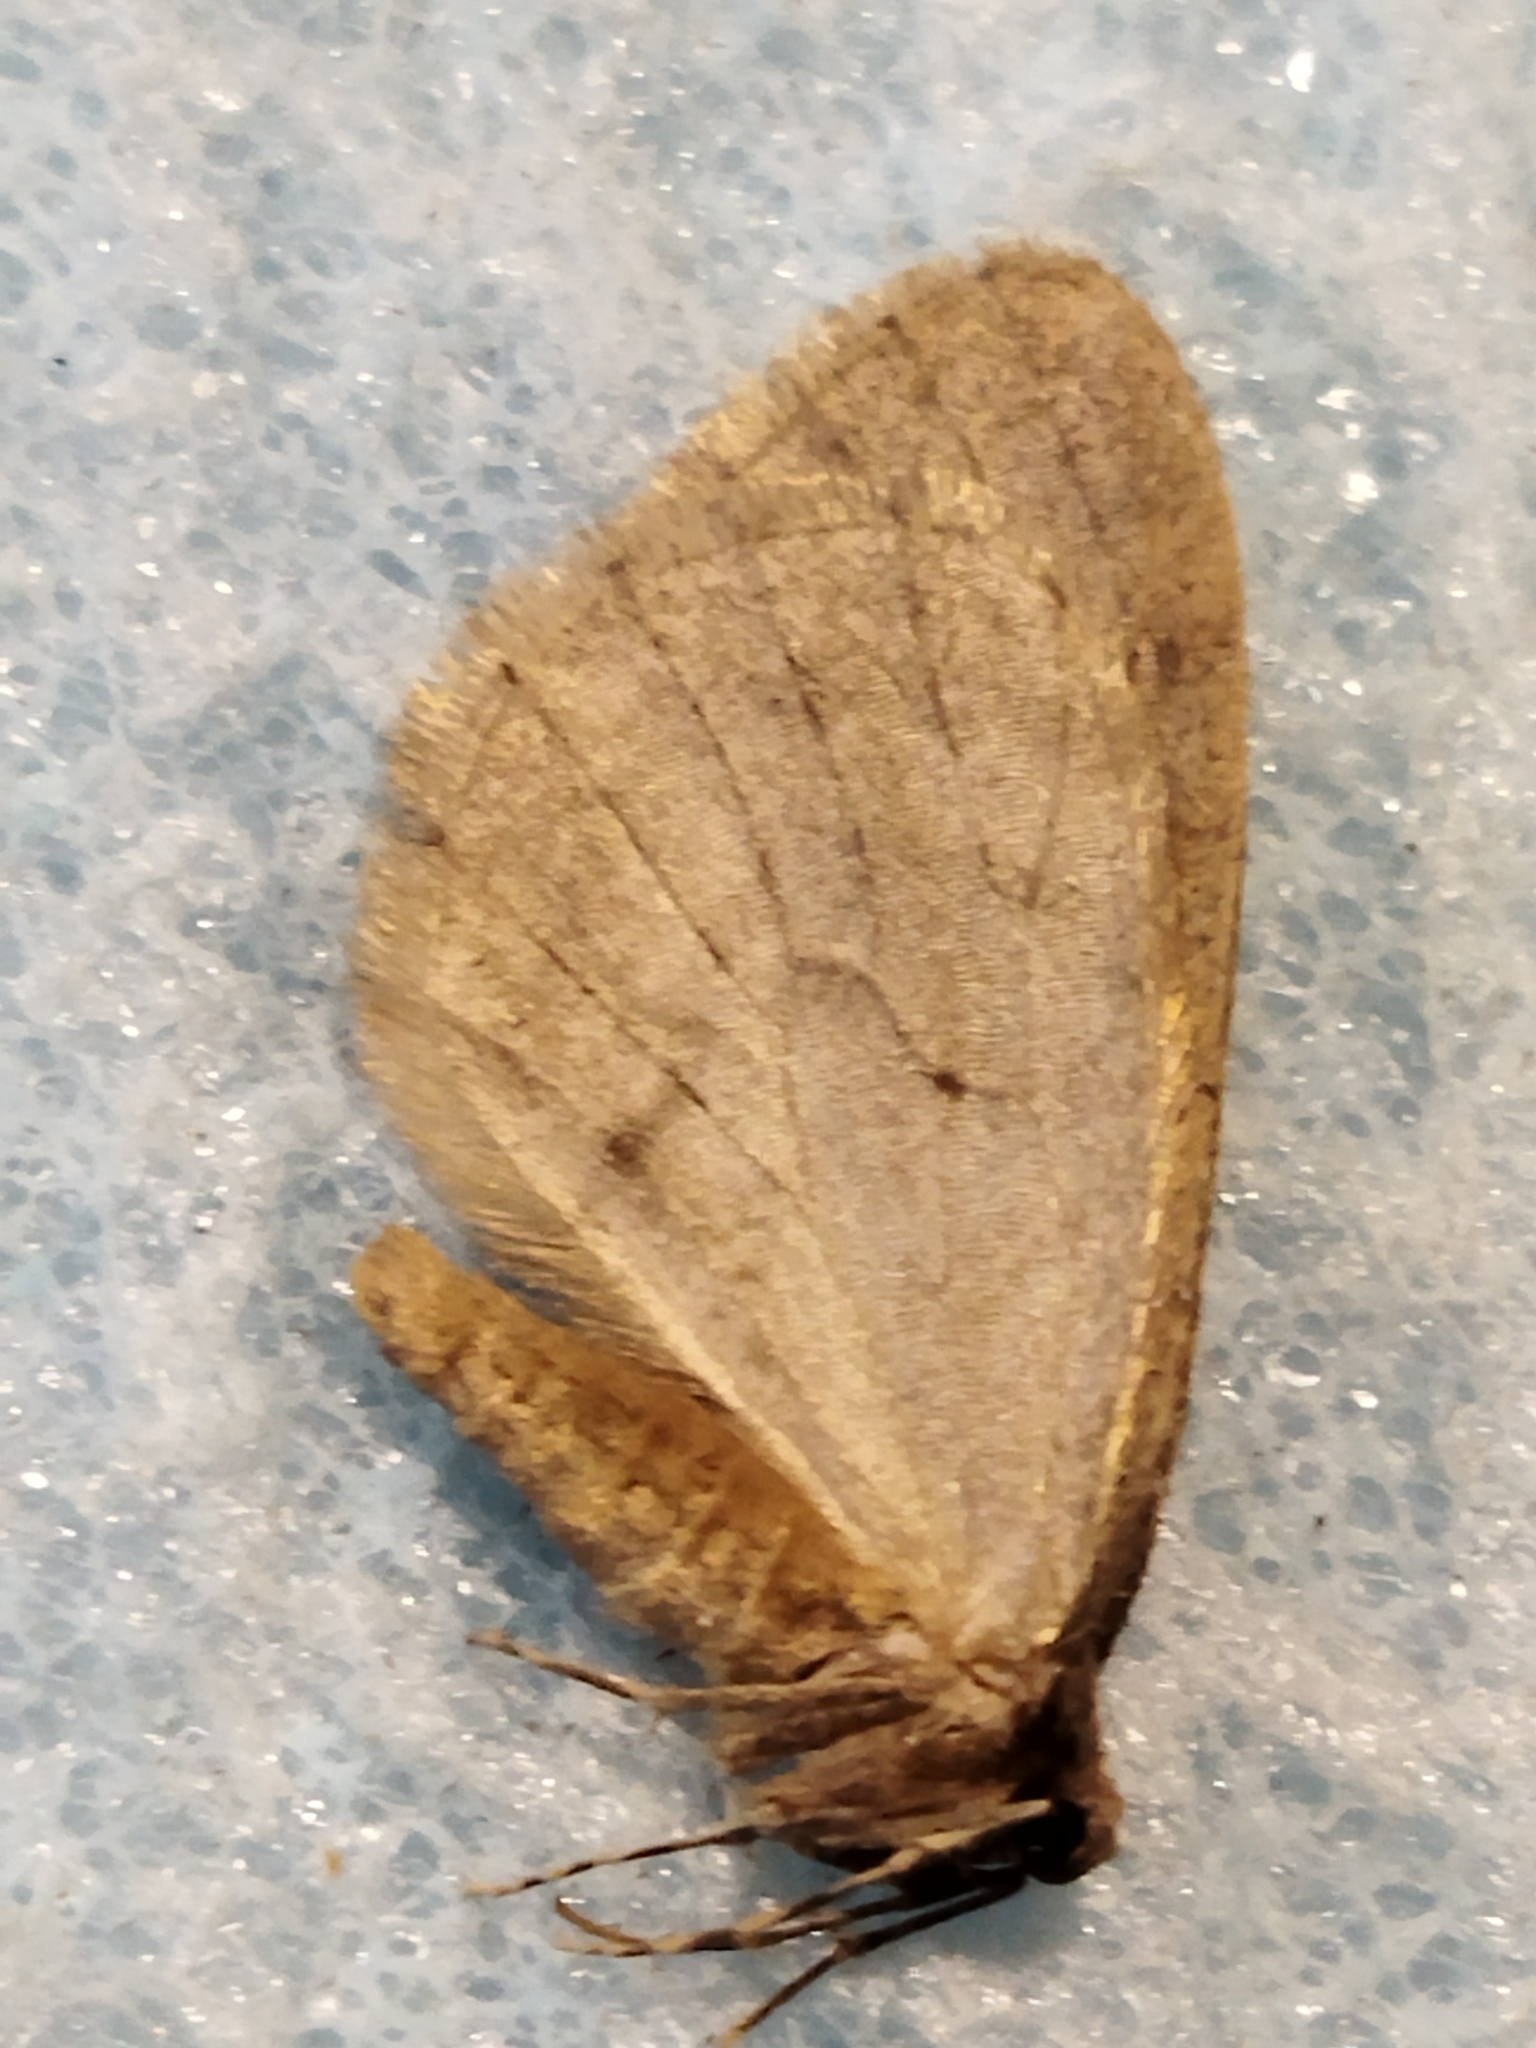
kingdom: Animalia
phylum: Arthropoda
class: Insecta
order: Lepidoptera
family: Geometridae
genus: Operophtera
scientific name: Operophtera brumata
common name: Winter moth
